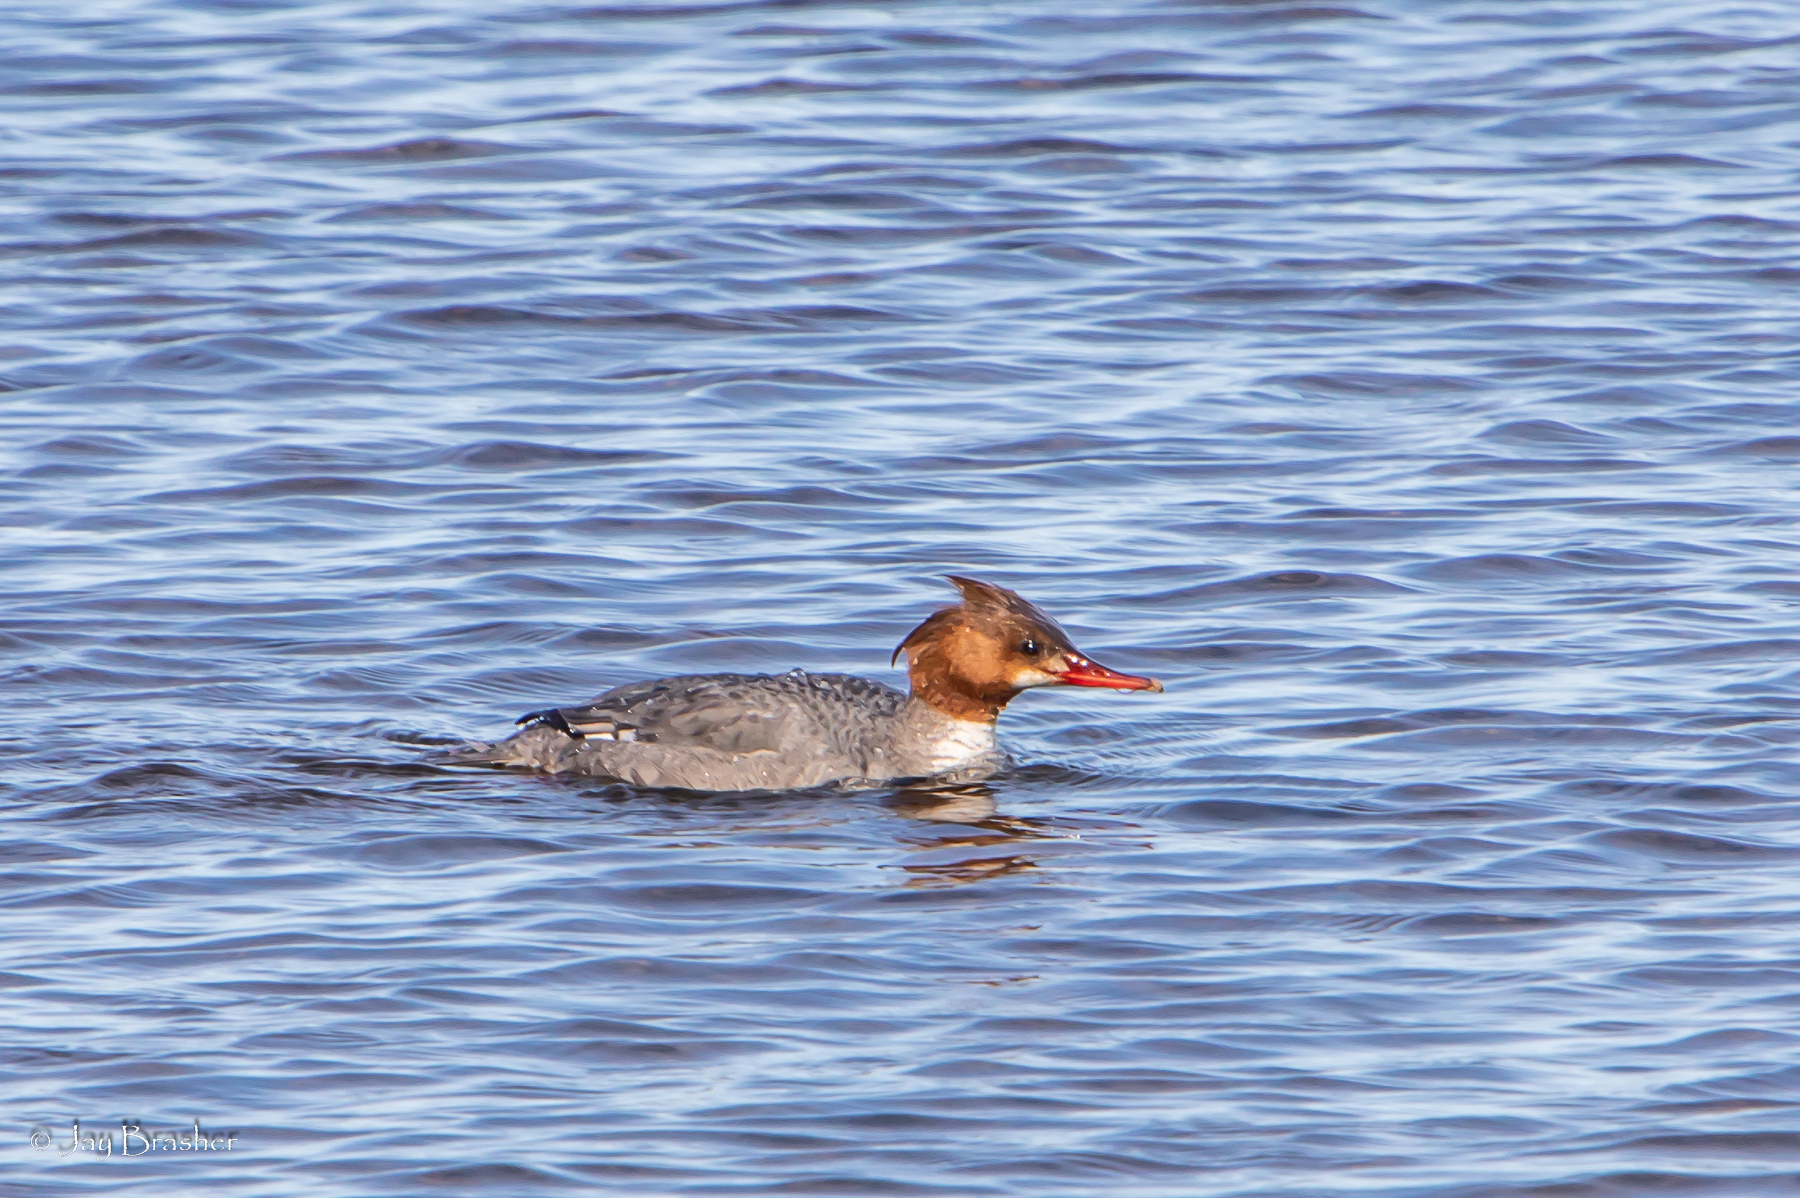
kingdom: Animalia
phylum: Chordata
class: Aves
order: Anseriformes
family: Anatidae
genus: Mergus
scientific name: Mergus merganser
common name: Common merganser
